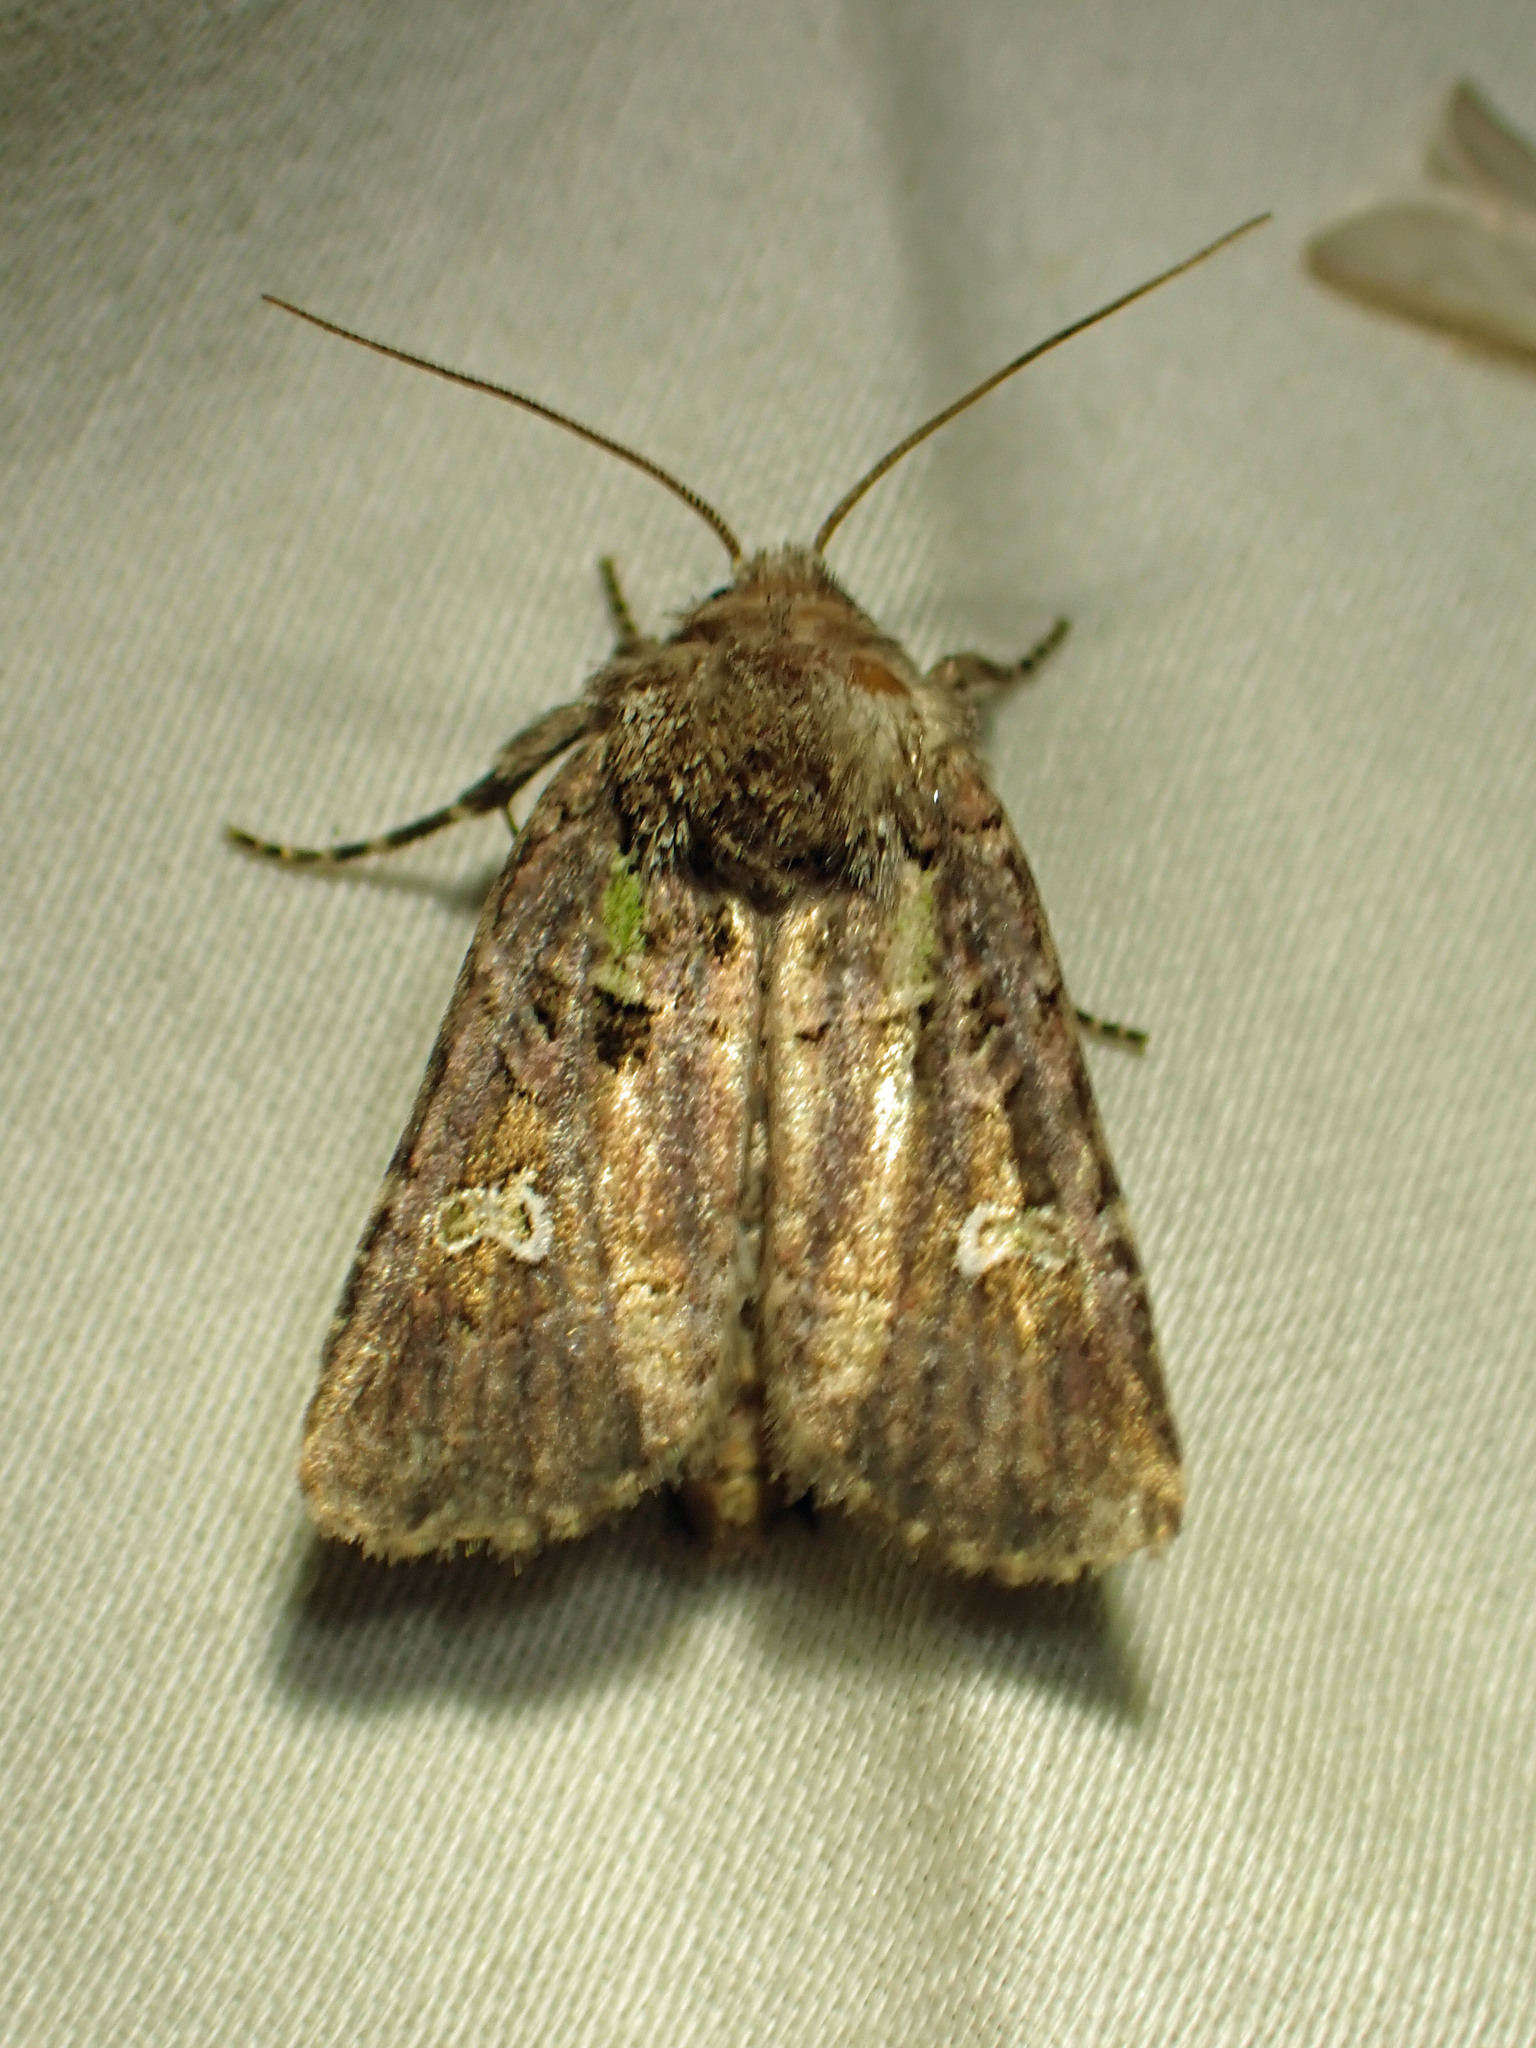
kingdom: Animalia
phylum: Arthropoda
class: Insecta
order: Lepidoptera
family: Noctuidae
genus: Lacinipolia
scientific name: Lacinipolia renigera
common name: Kidney-spotted minor
